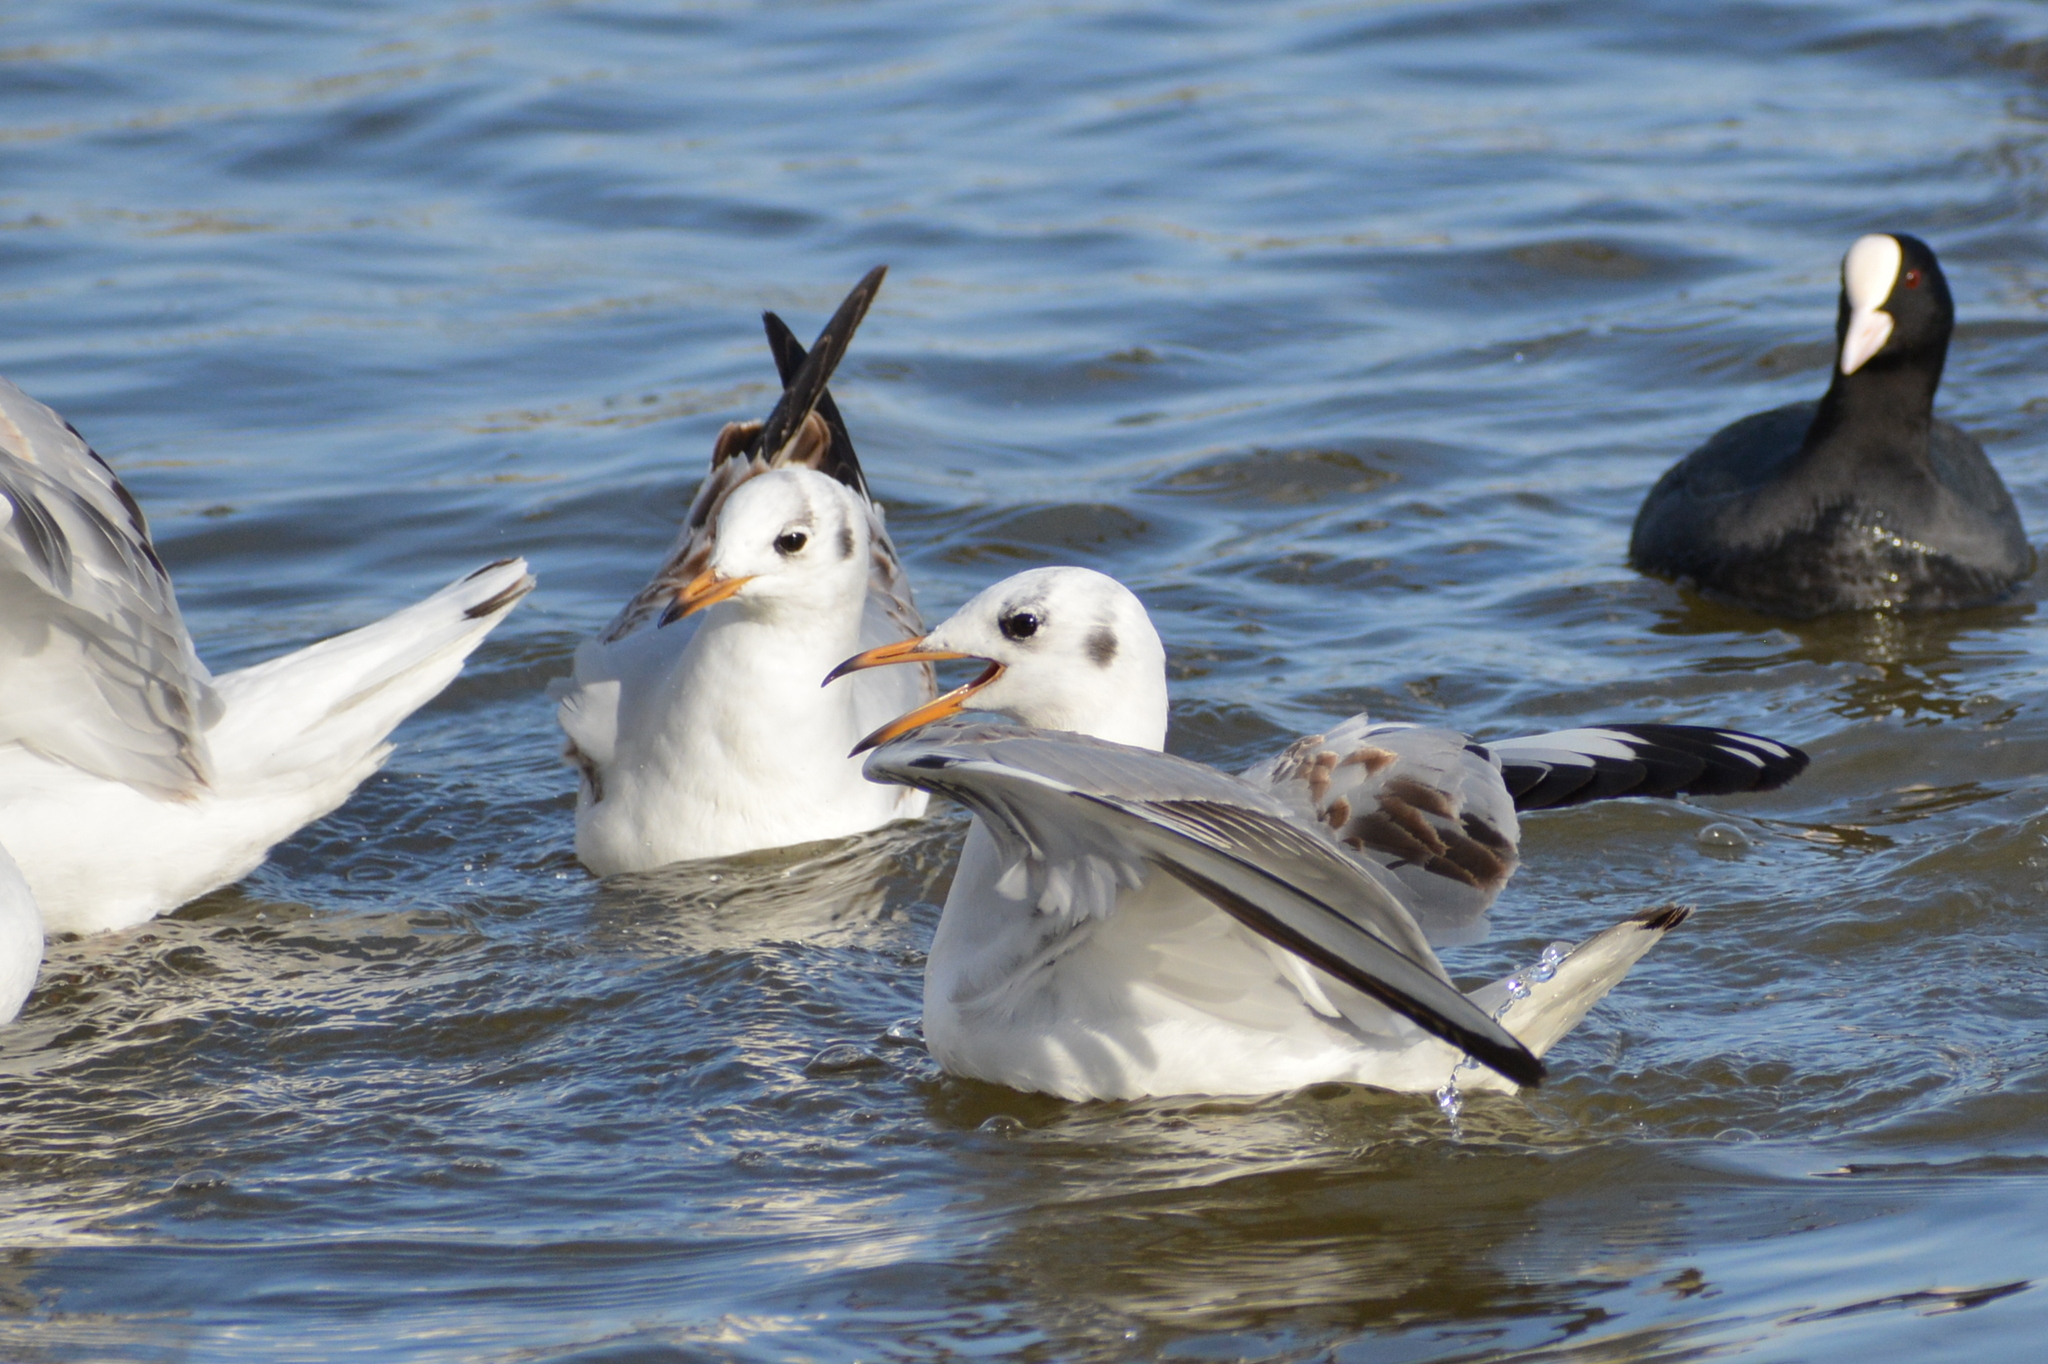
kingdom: Animalia
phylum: Chordata
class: Aves
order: Charadriiformes
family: Laridae
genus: Chroicocephalus
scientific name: Chroicocephalus ridibundus
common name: Black-headed gull
